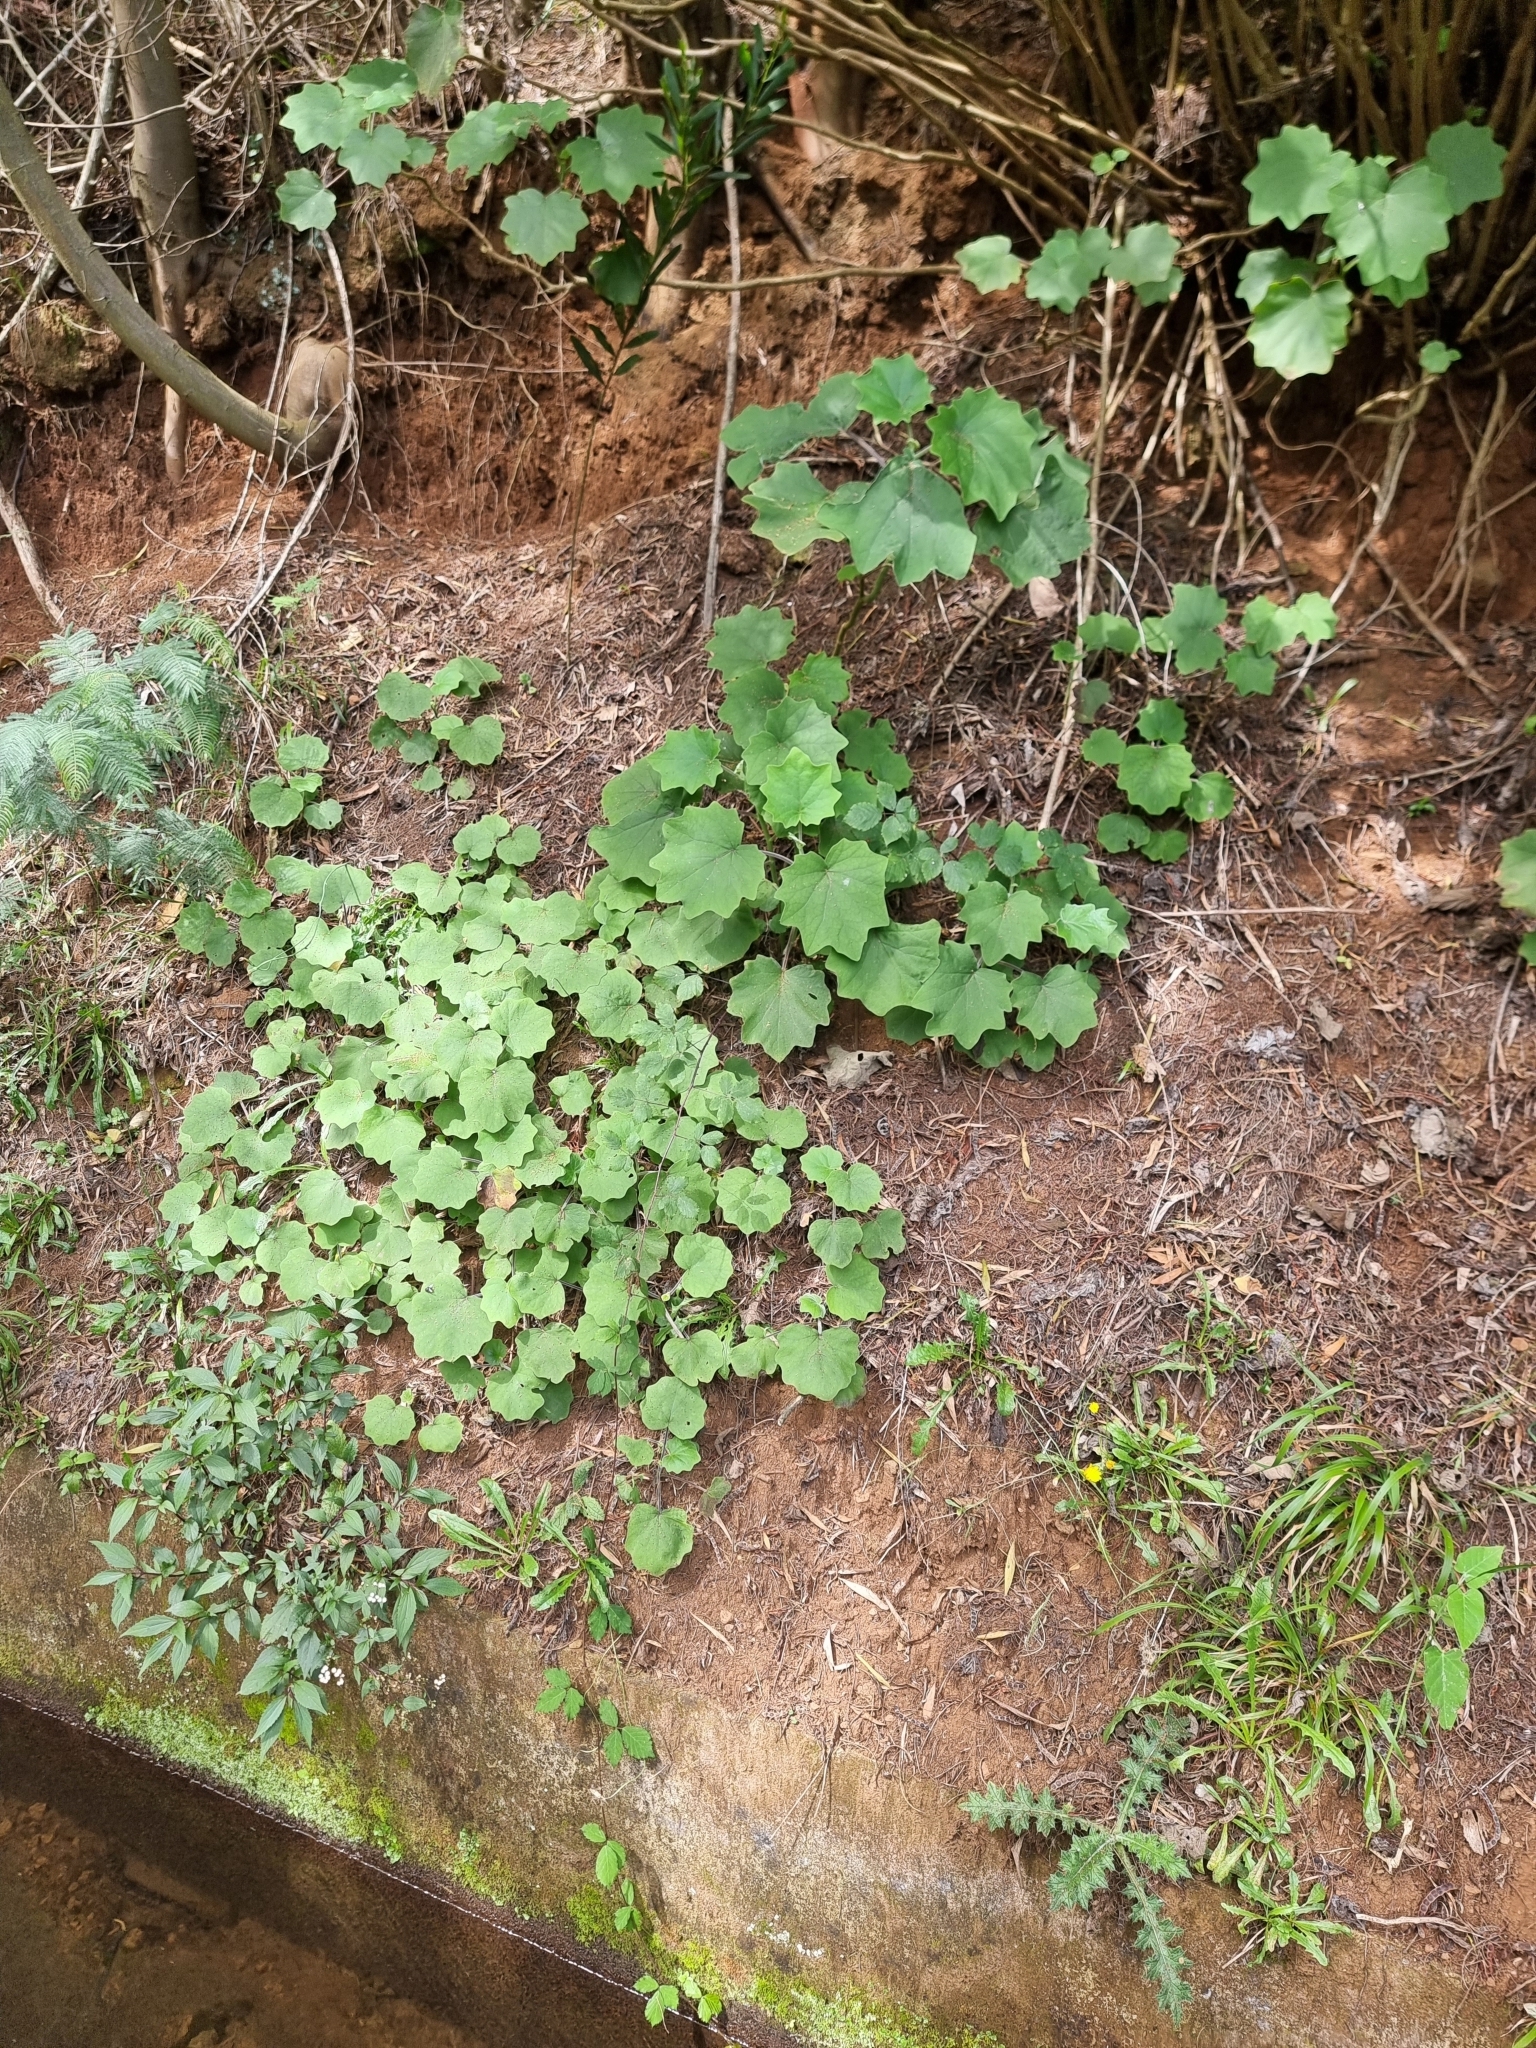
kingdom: Plantae
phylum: Tracheophyta
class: Magnoliopsida
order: Asterales
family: Asteraceae
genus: Roldana
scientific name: Roldana petasitis
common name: California-geranium
